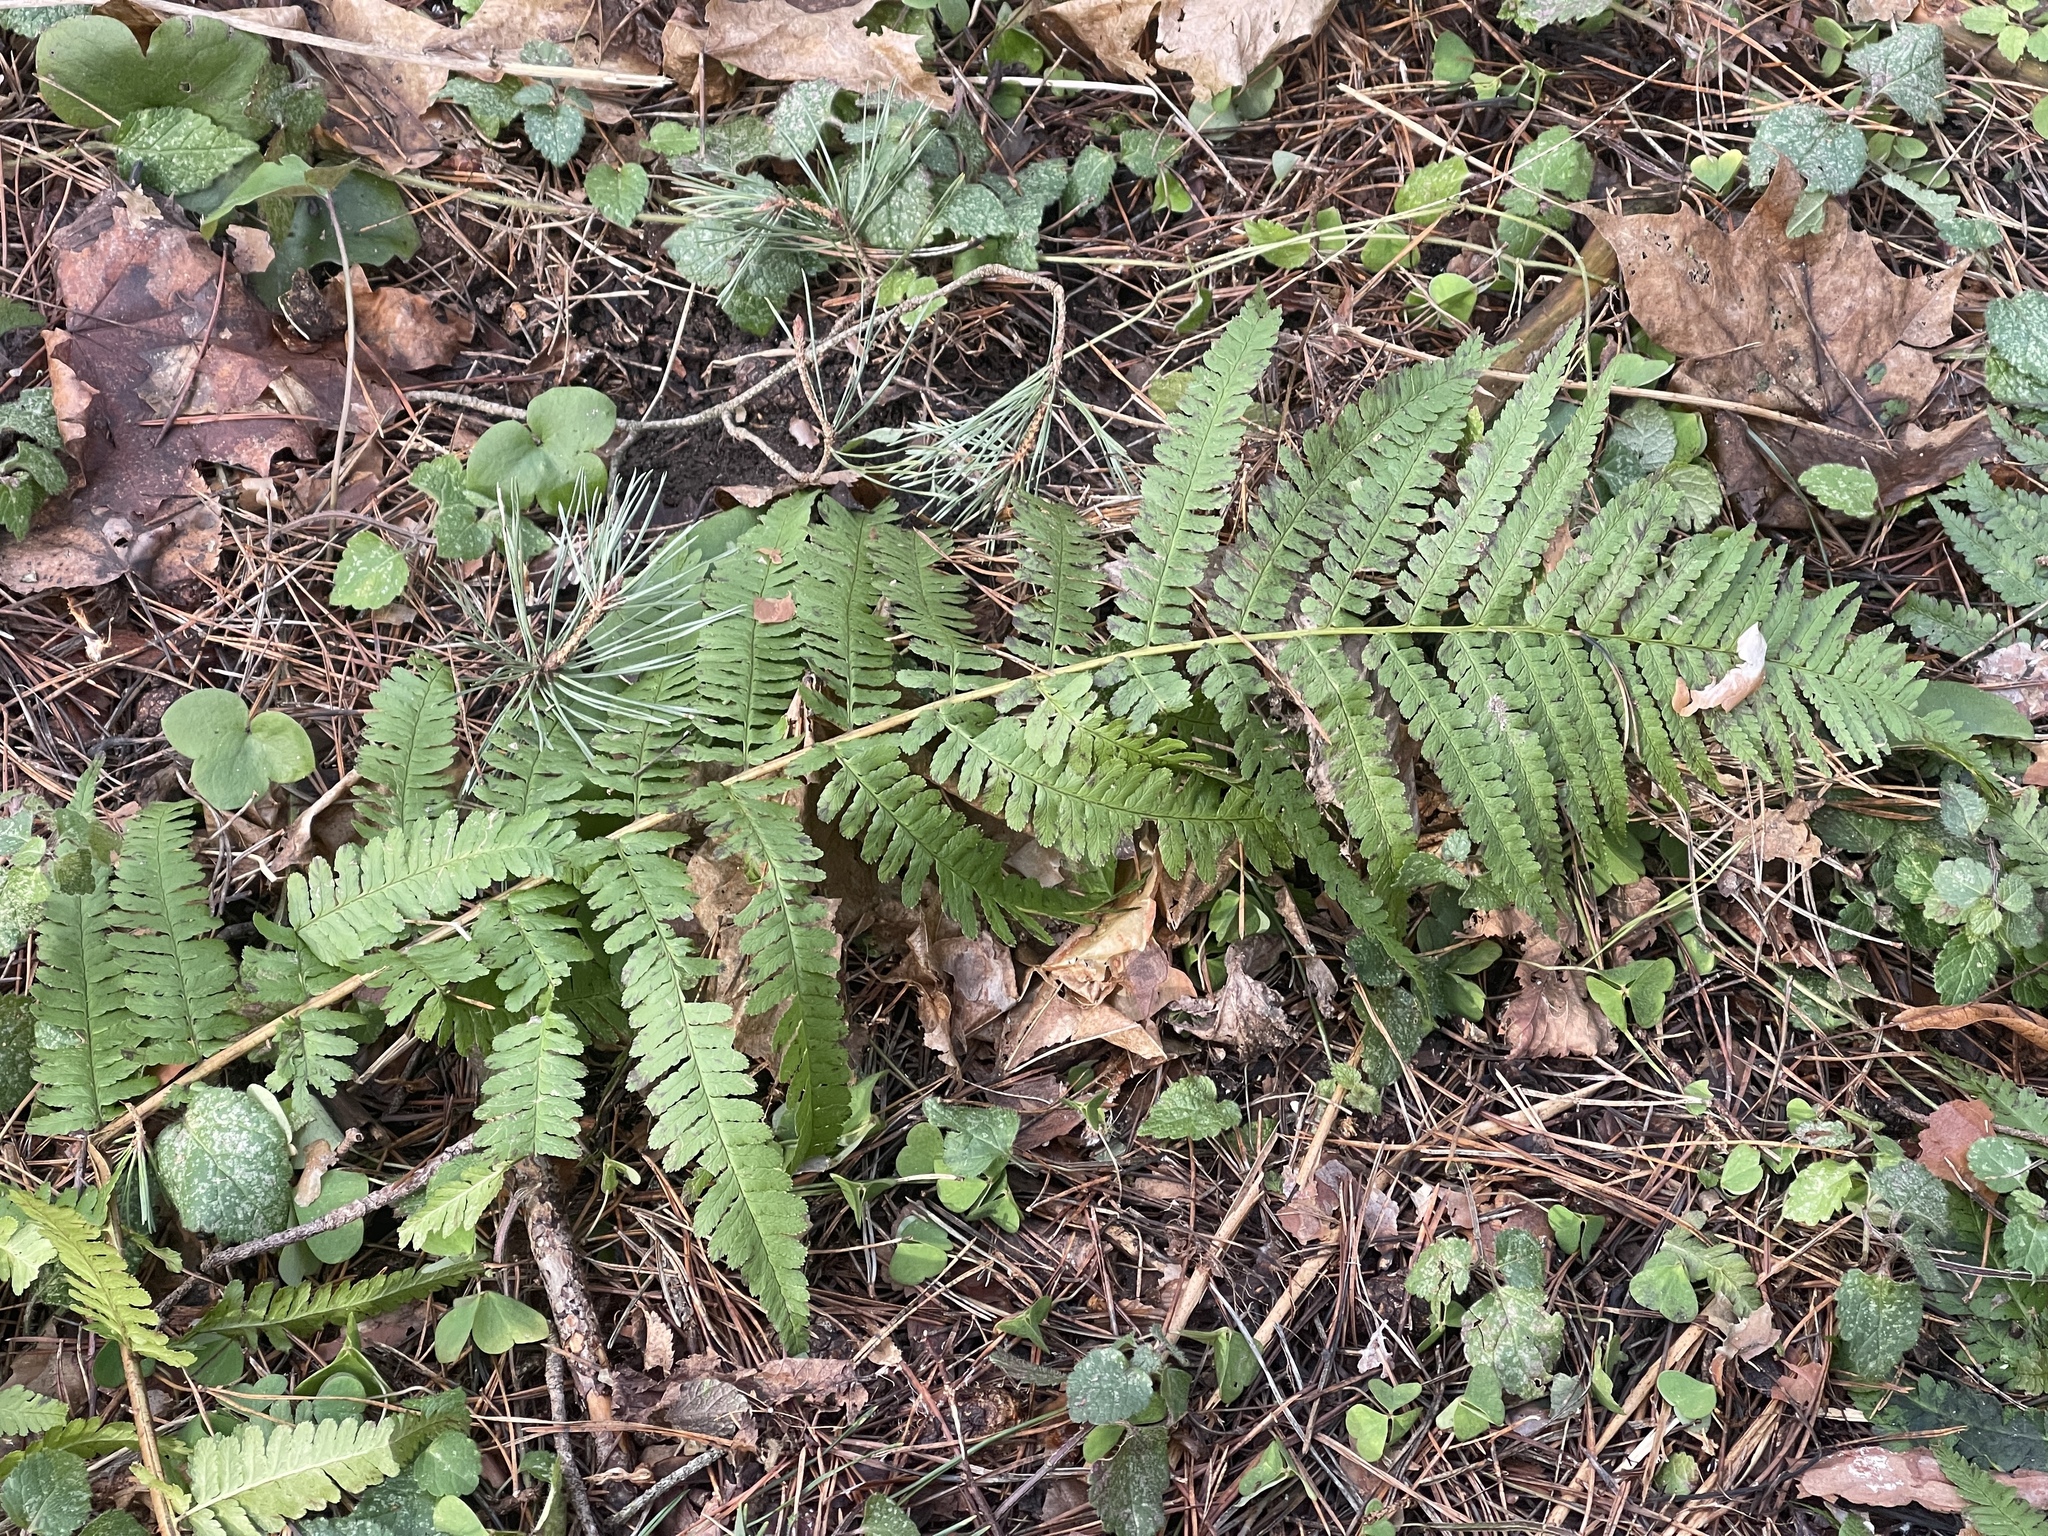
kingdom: Plantae
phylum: Tracheophyta
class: Polypodiopsida
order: Polypodiales
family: Dryopteridaceae
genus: Dryopteris
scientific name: Dryopteris filix-mas
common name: Male fern
